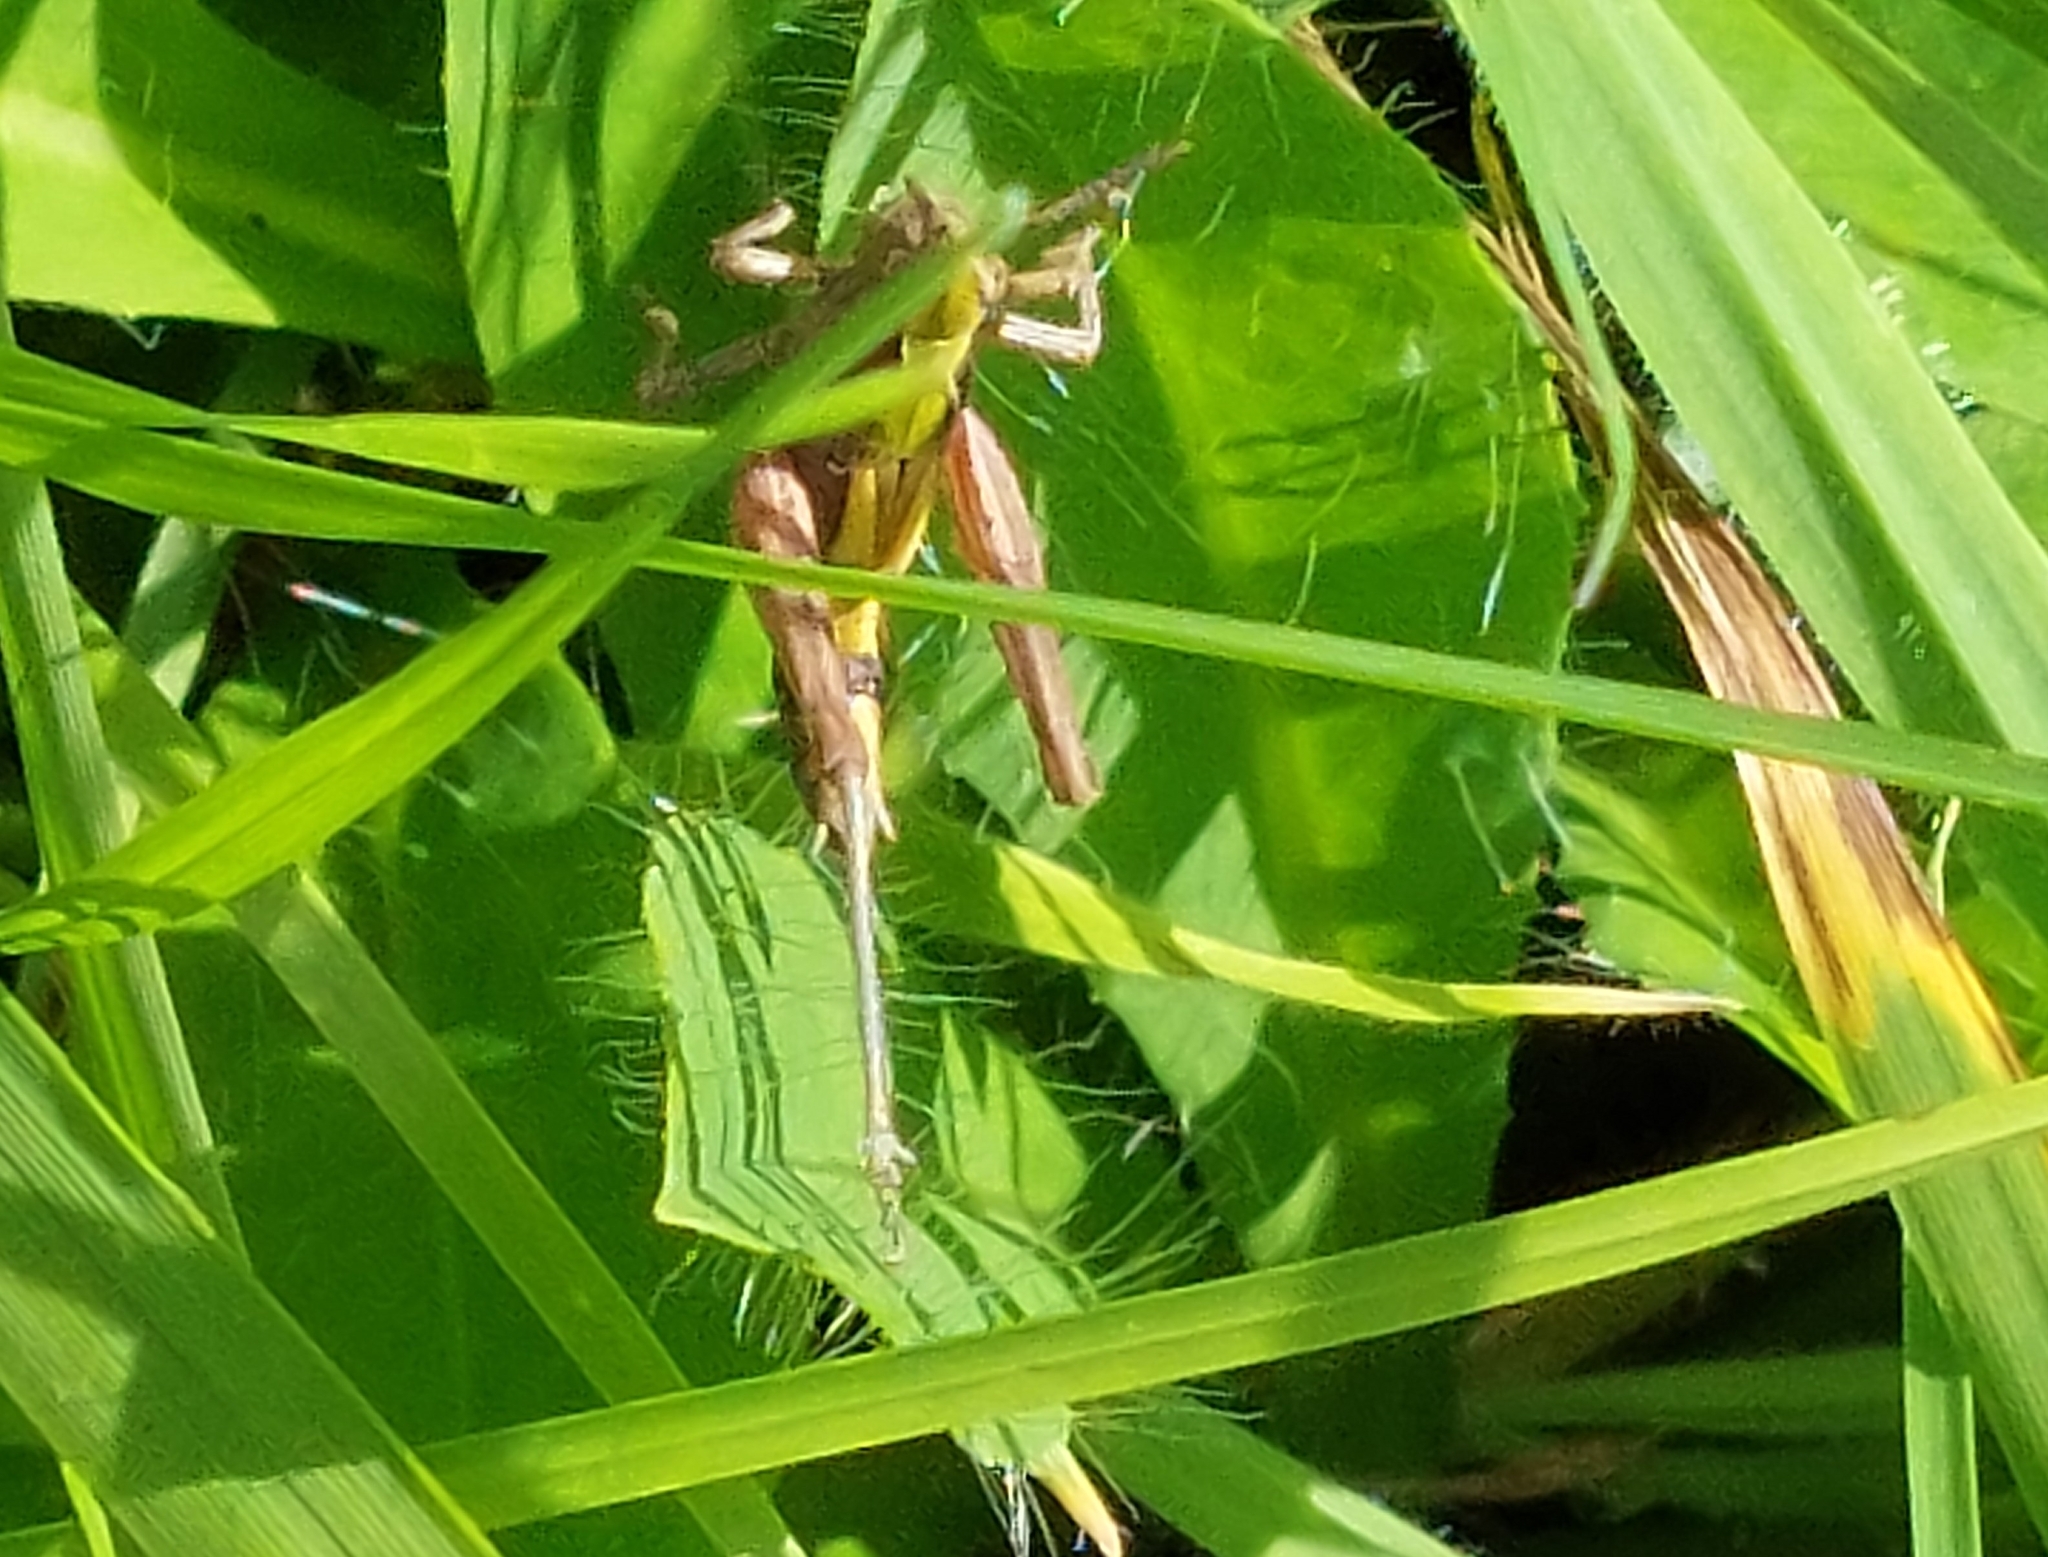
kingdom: Animalia
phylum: Arthropoda
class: Insecta
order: Orthoptera
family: Acrididae
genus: Chorthippus
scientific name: Chorthippus brunneus
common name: Field grasshopper
